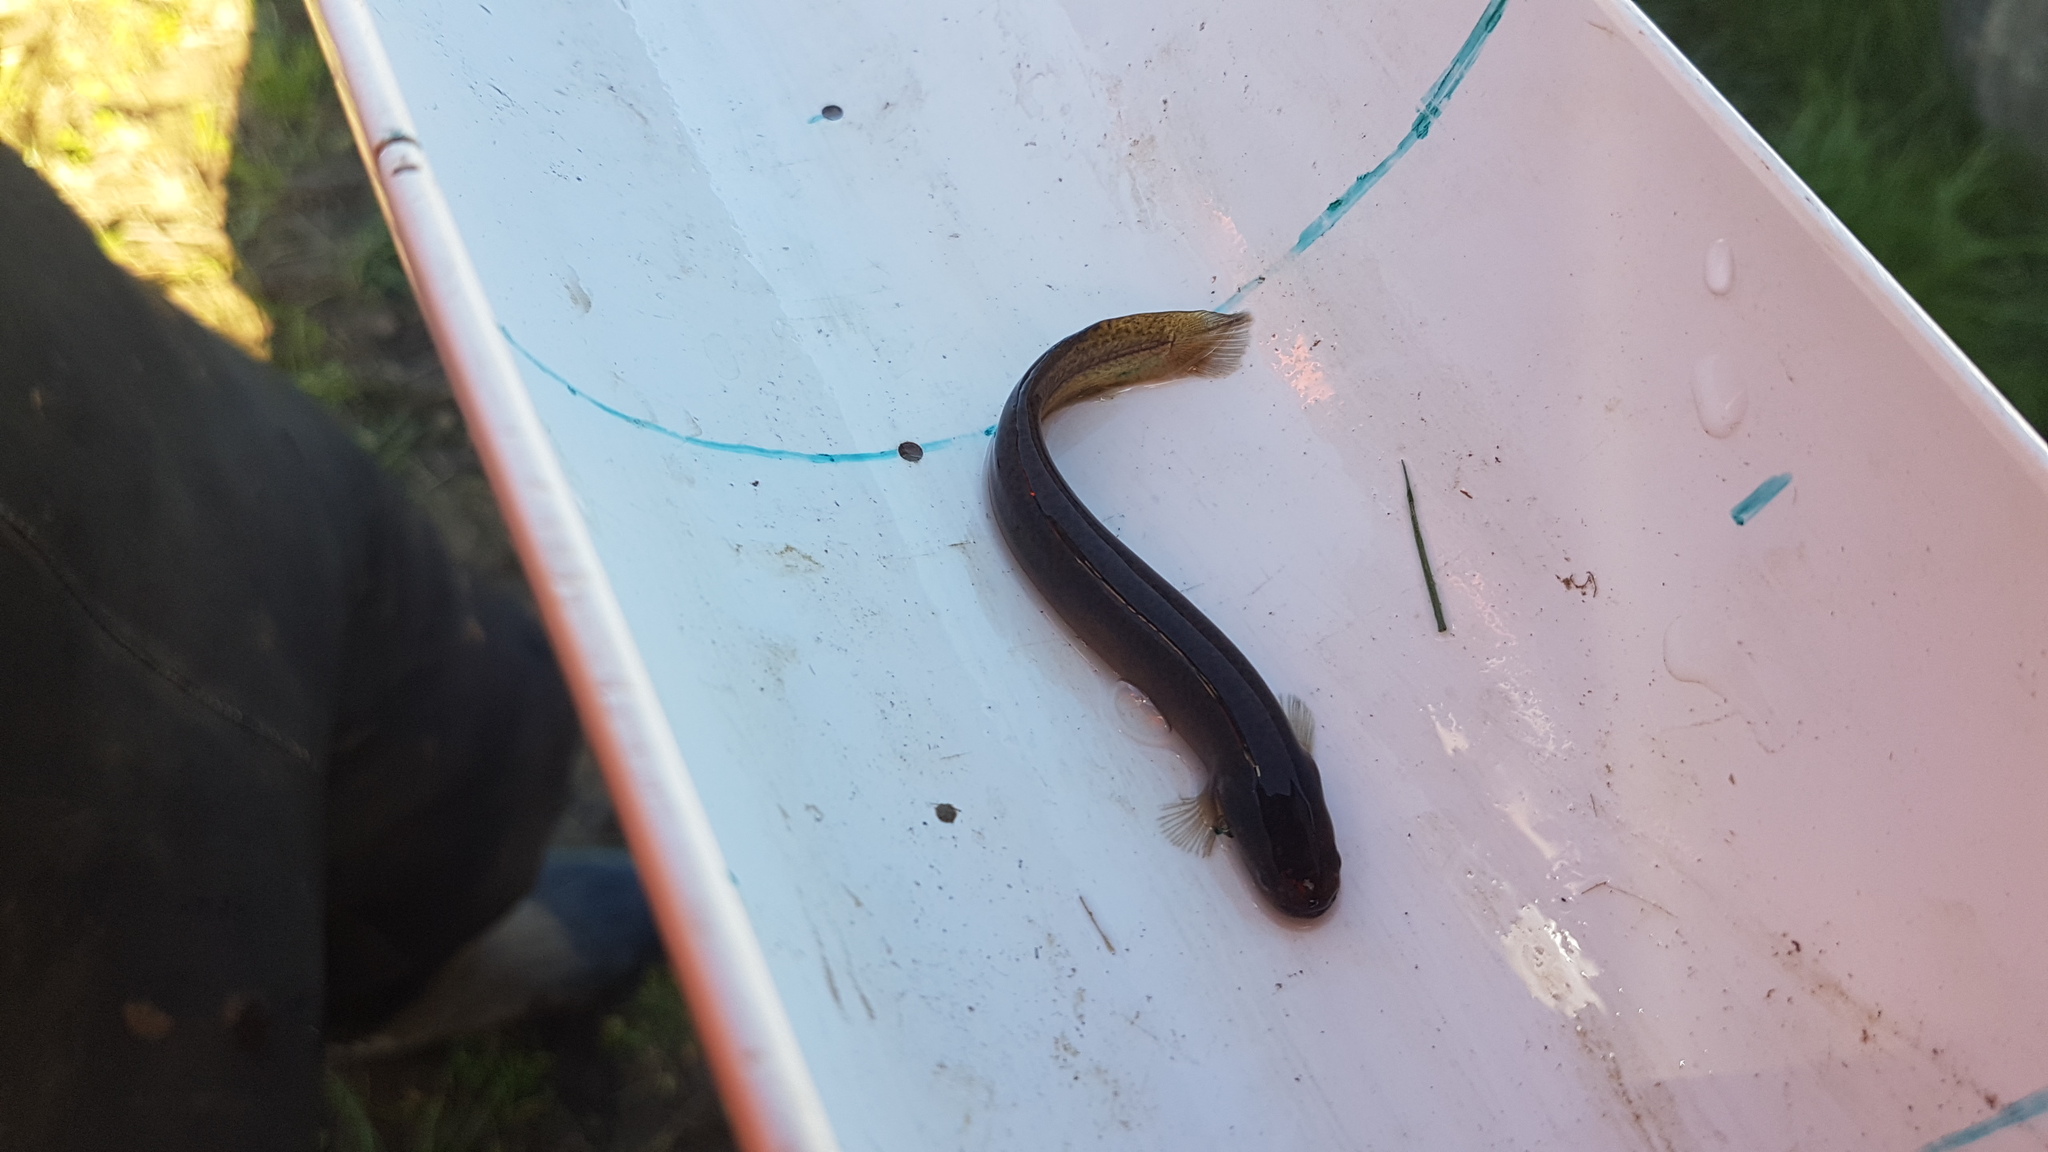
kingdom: Animalia
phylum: Chordata
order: Osmeriformes
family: Galaxiidae
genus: Neochanna
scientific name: Neochanna diversus
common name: Black mudfish
